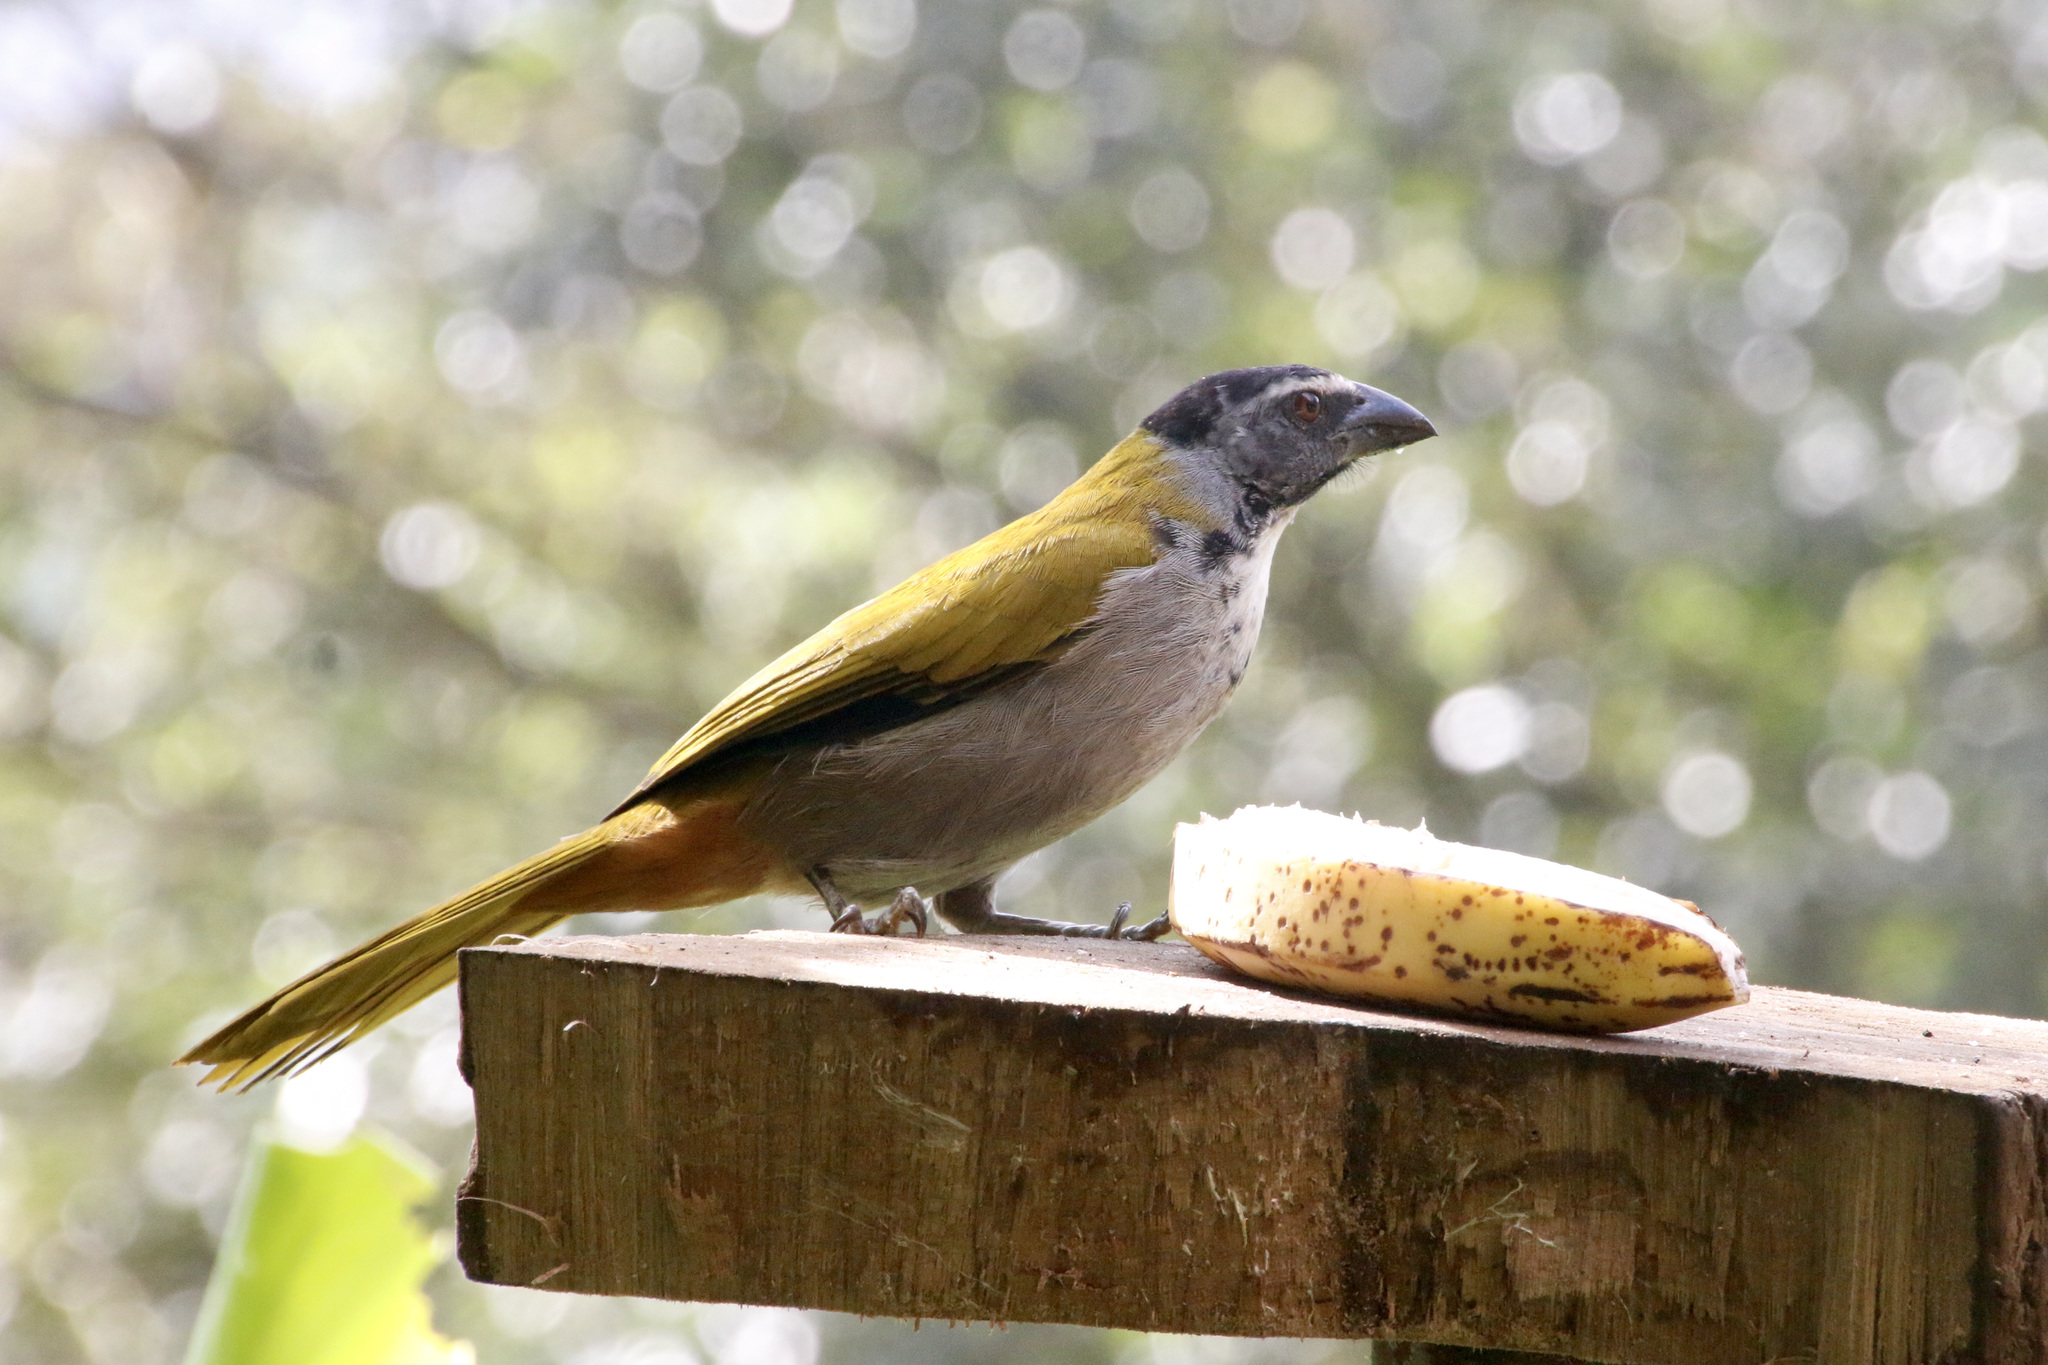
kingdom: Animalia
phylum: Chordata
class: Aves
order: Passeriformes
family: Thraupidae
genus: Saltator
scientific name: Saltator atriceps
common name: Black-headed saltator
